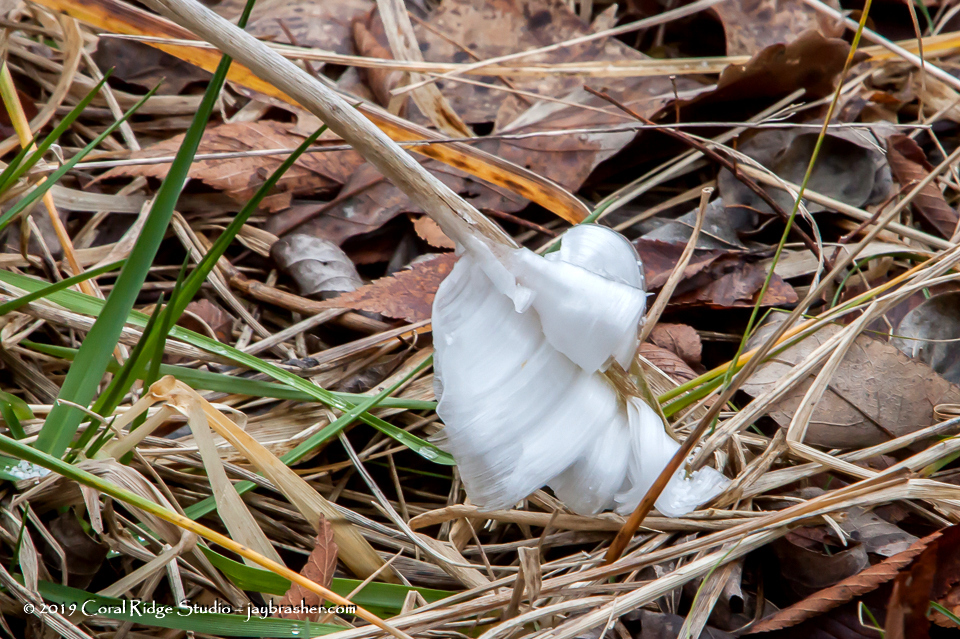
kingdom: Plantae
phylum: Tracheophyta
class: Magnoliopsida
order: Asterales
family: Asteraceae
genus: Verbesina
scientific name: Verbesina virginica
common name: Frostweed
